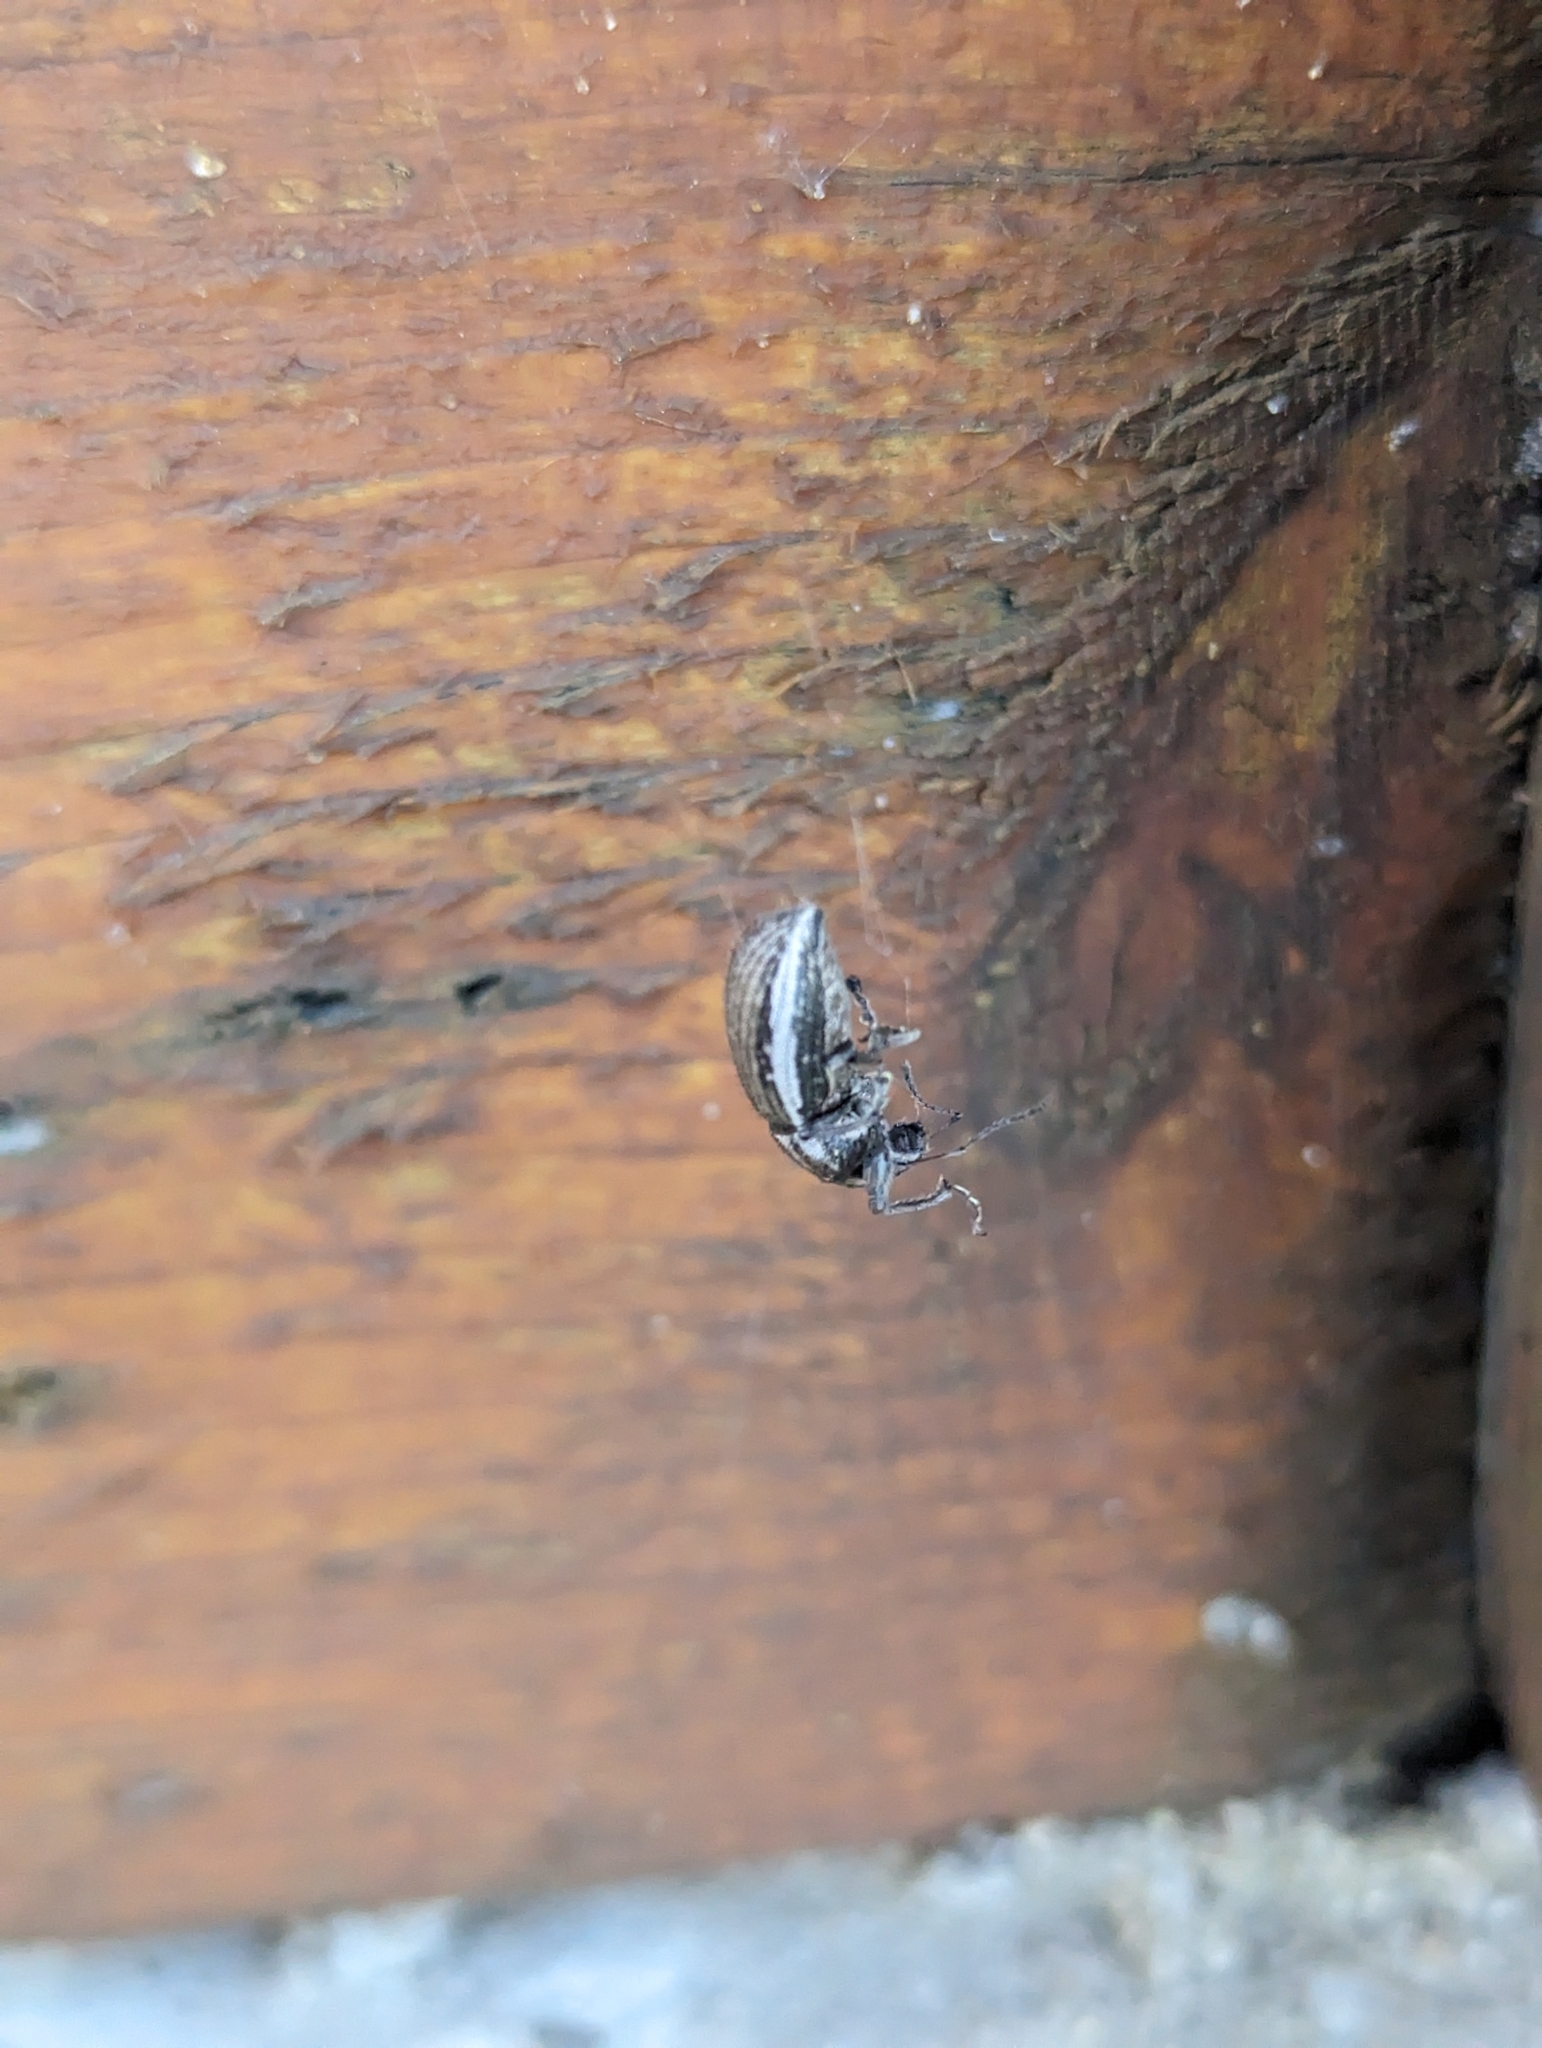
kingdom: Animalia
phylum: Arthropoda
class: Insecta
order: Coleoptera
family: Curculionidae
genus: Naupactus
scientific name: Naupactus leucoloma
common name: Whitefringed beetle
